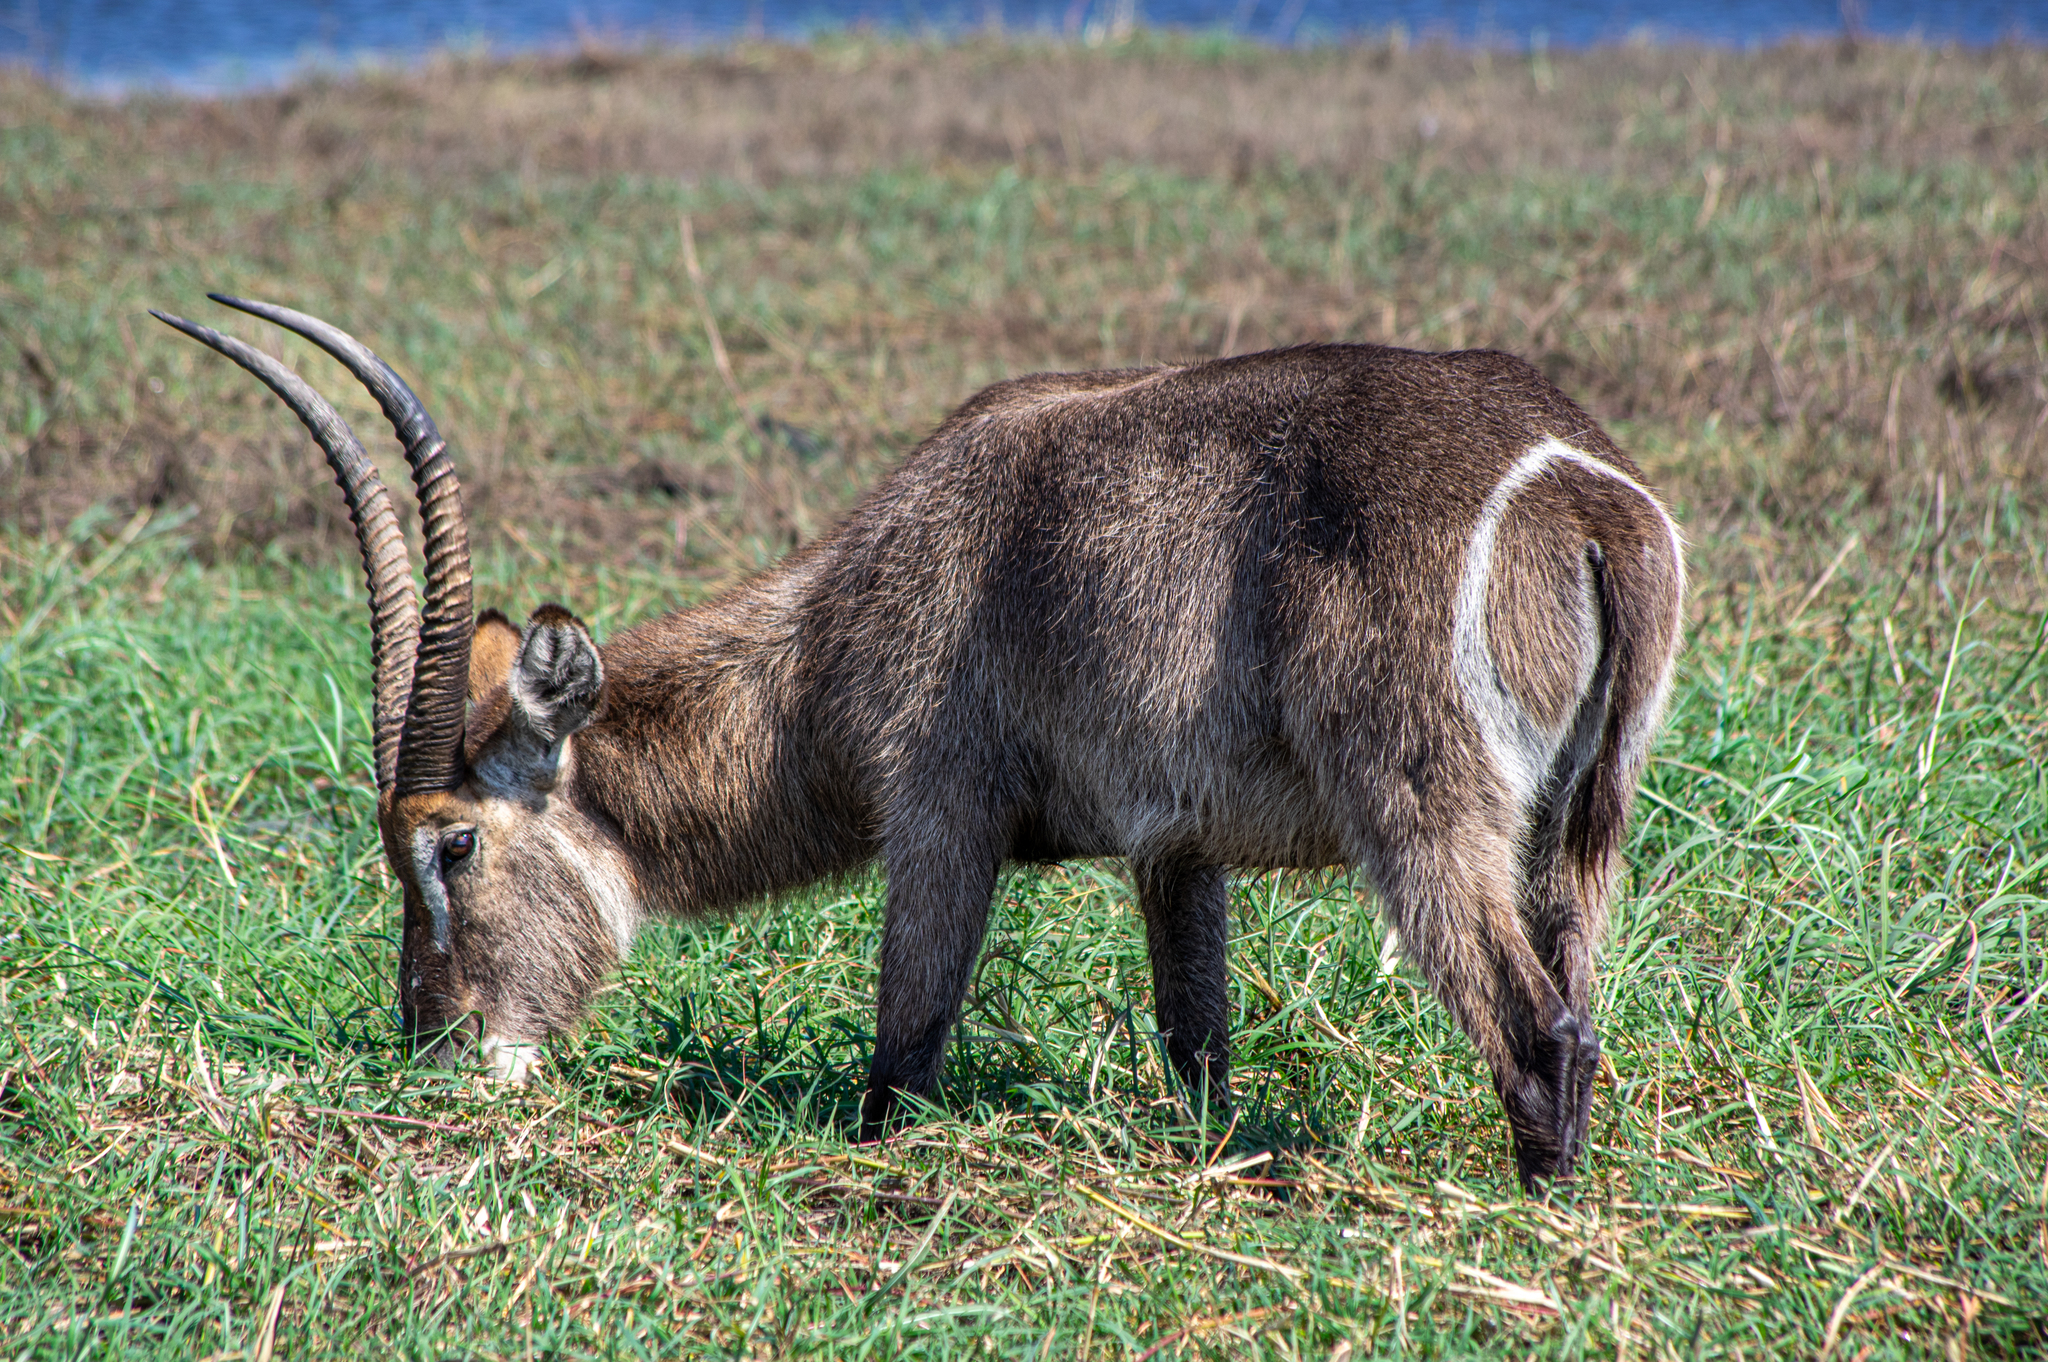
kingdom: Animalia
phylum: Chordata
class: Mammalia
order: Artiodactyla
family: Bovidae
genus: Kobus
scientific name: Kobus ellipsiprymnus
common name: Waterbuck
